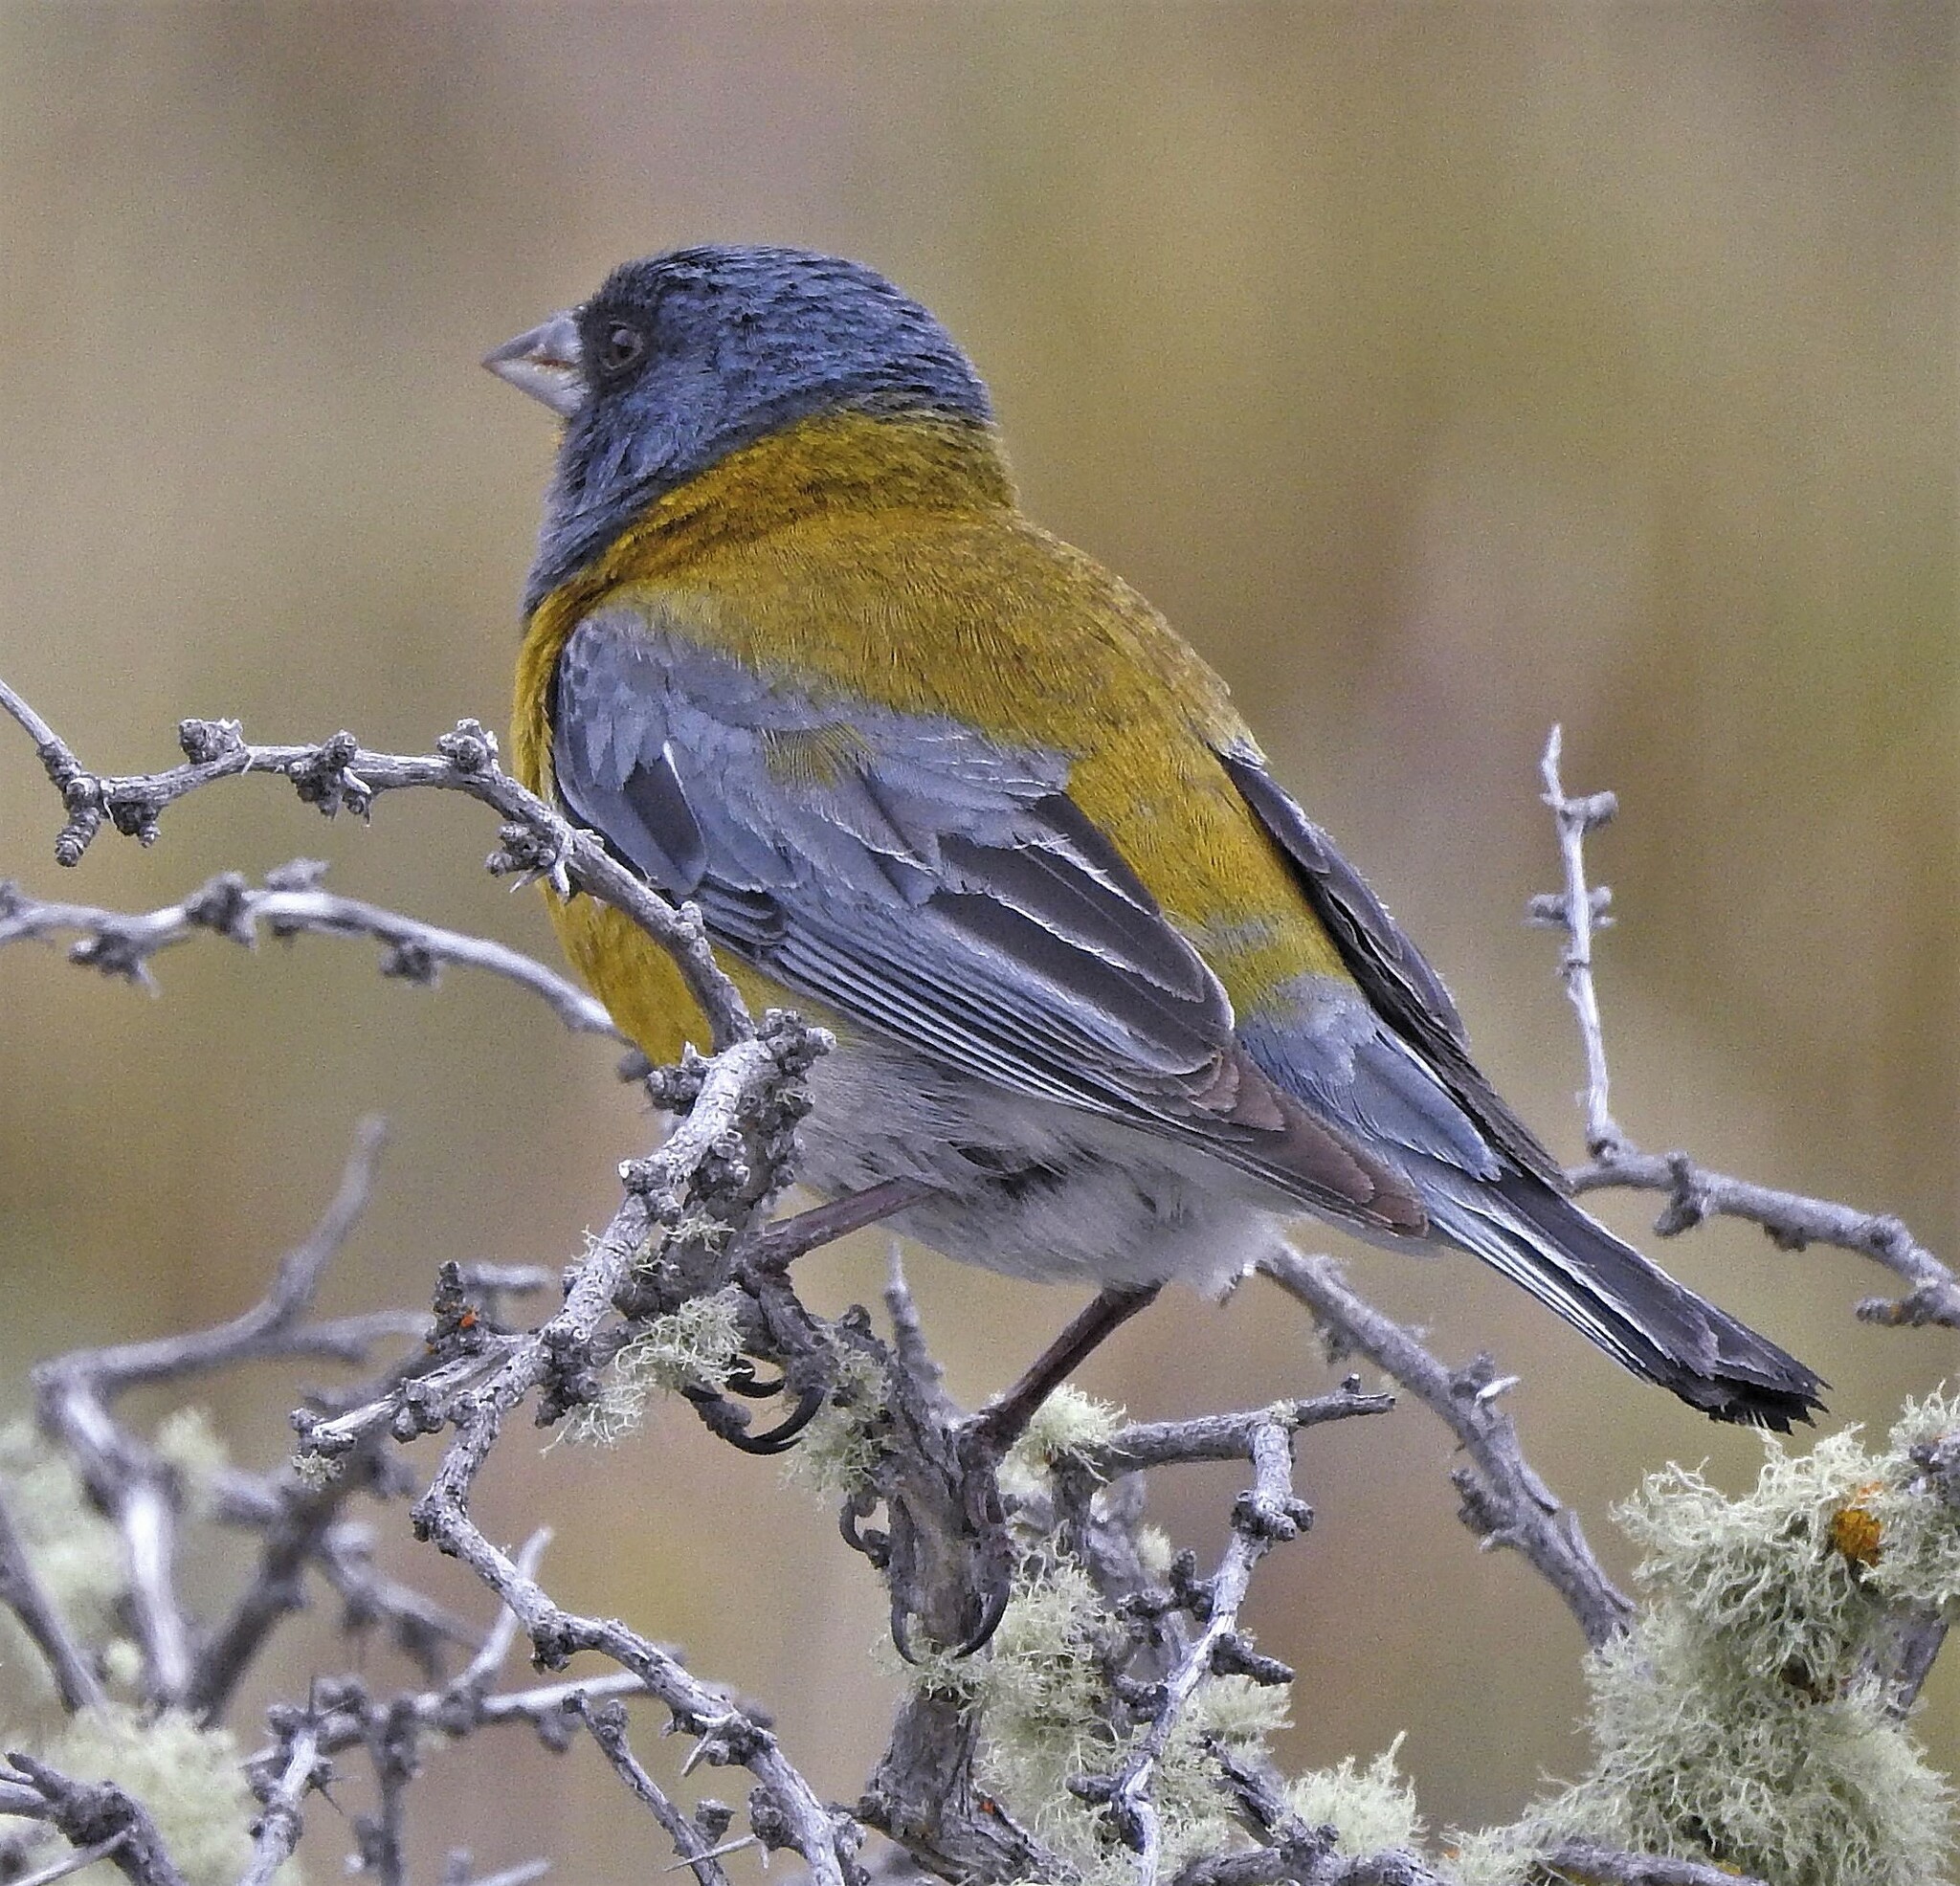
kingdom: Animalia
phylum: Chordata
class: Aves
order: Passeriformes
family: Thraupidae
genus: Phrygilus
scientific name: Phrygilus gayi
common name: Grey-hooded sierra finch
